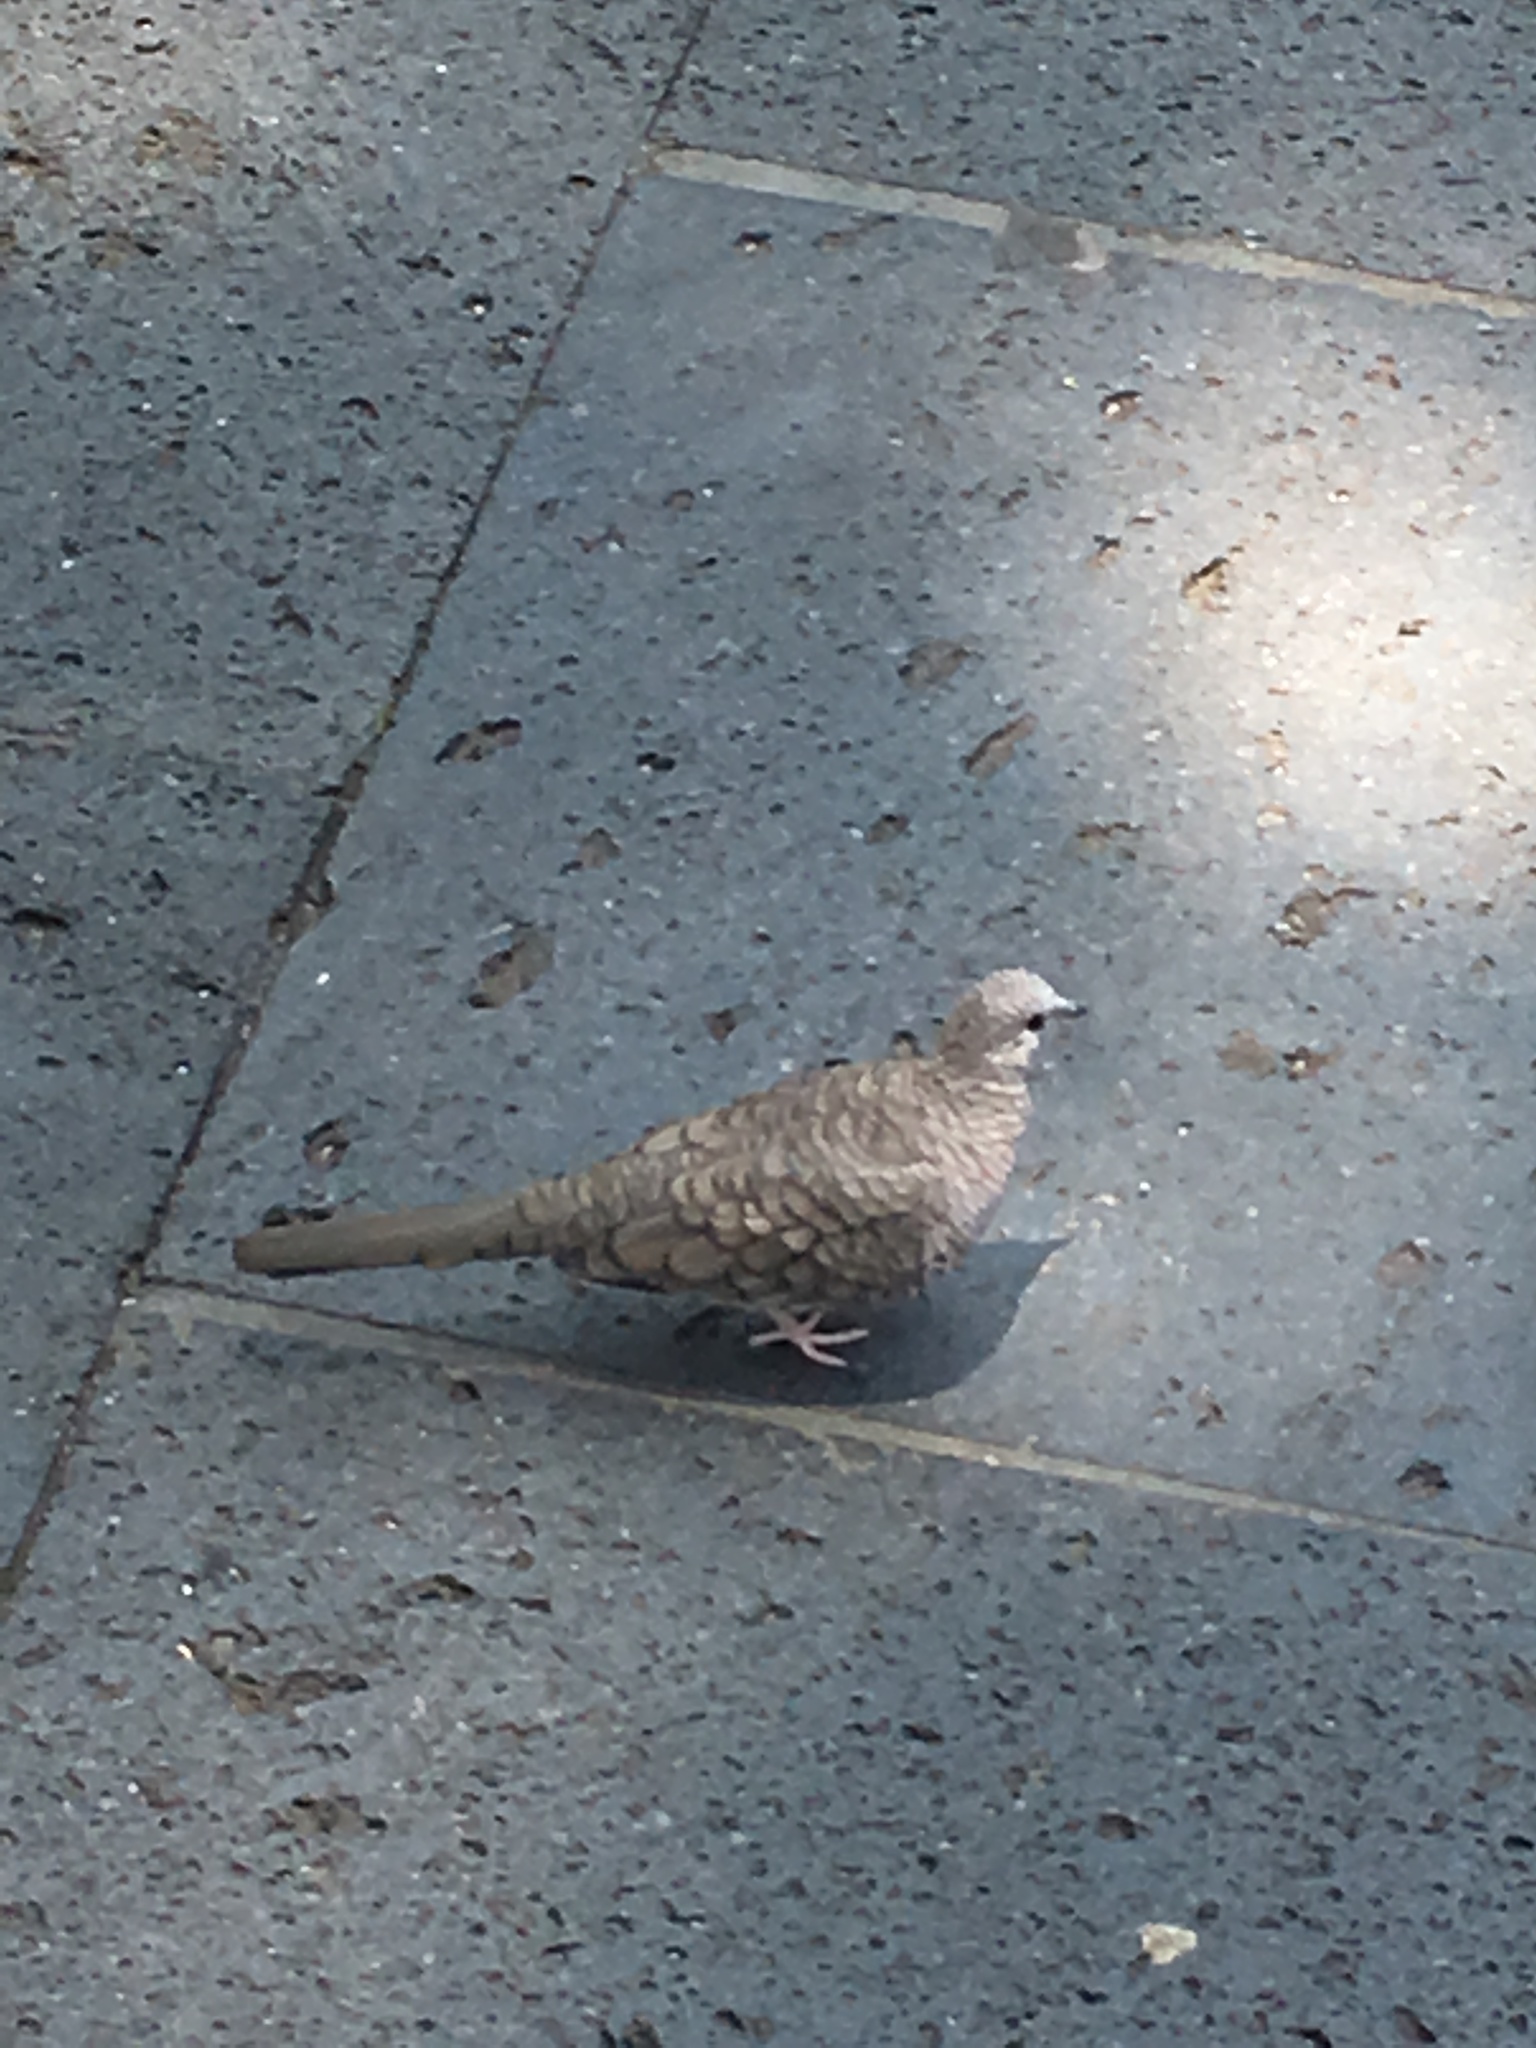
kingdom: Animalia
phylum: Chordata
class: Aves
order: Columbiformes
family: Columbidae
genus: Columbina
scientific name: Columbina inca
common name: Inca dove
